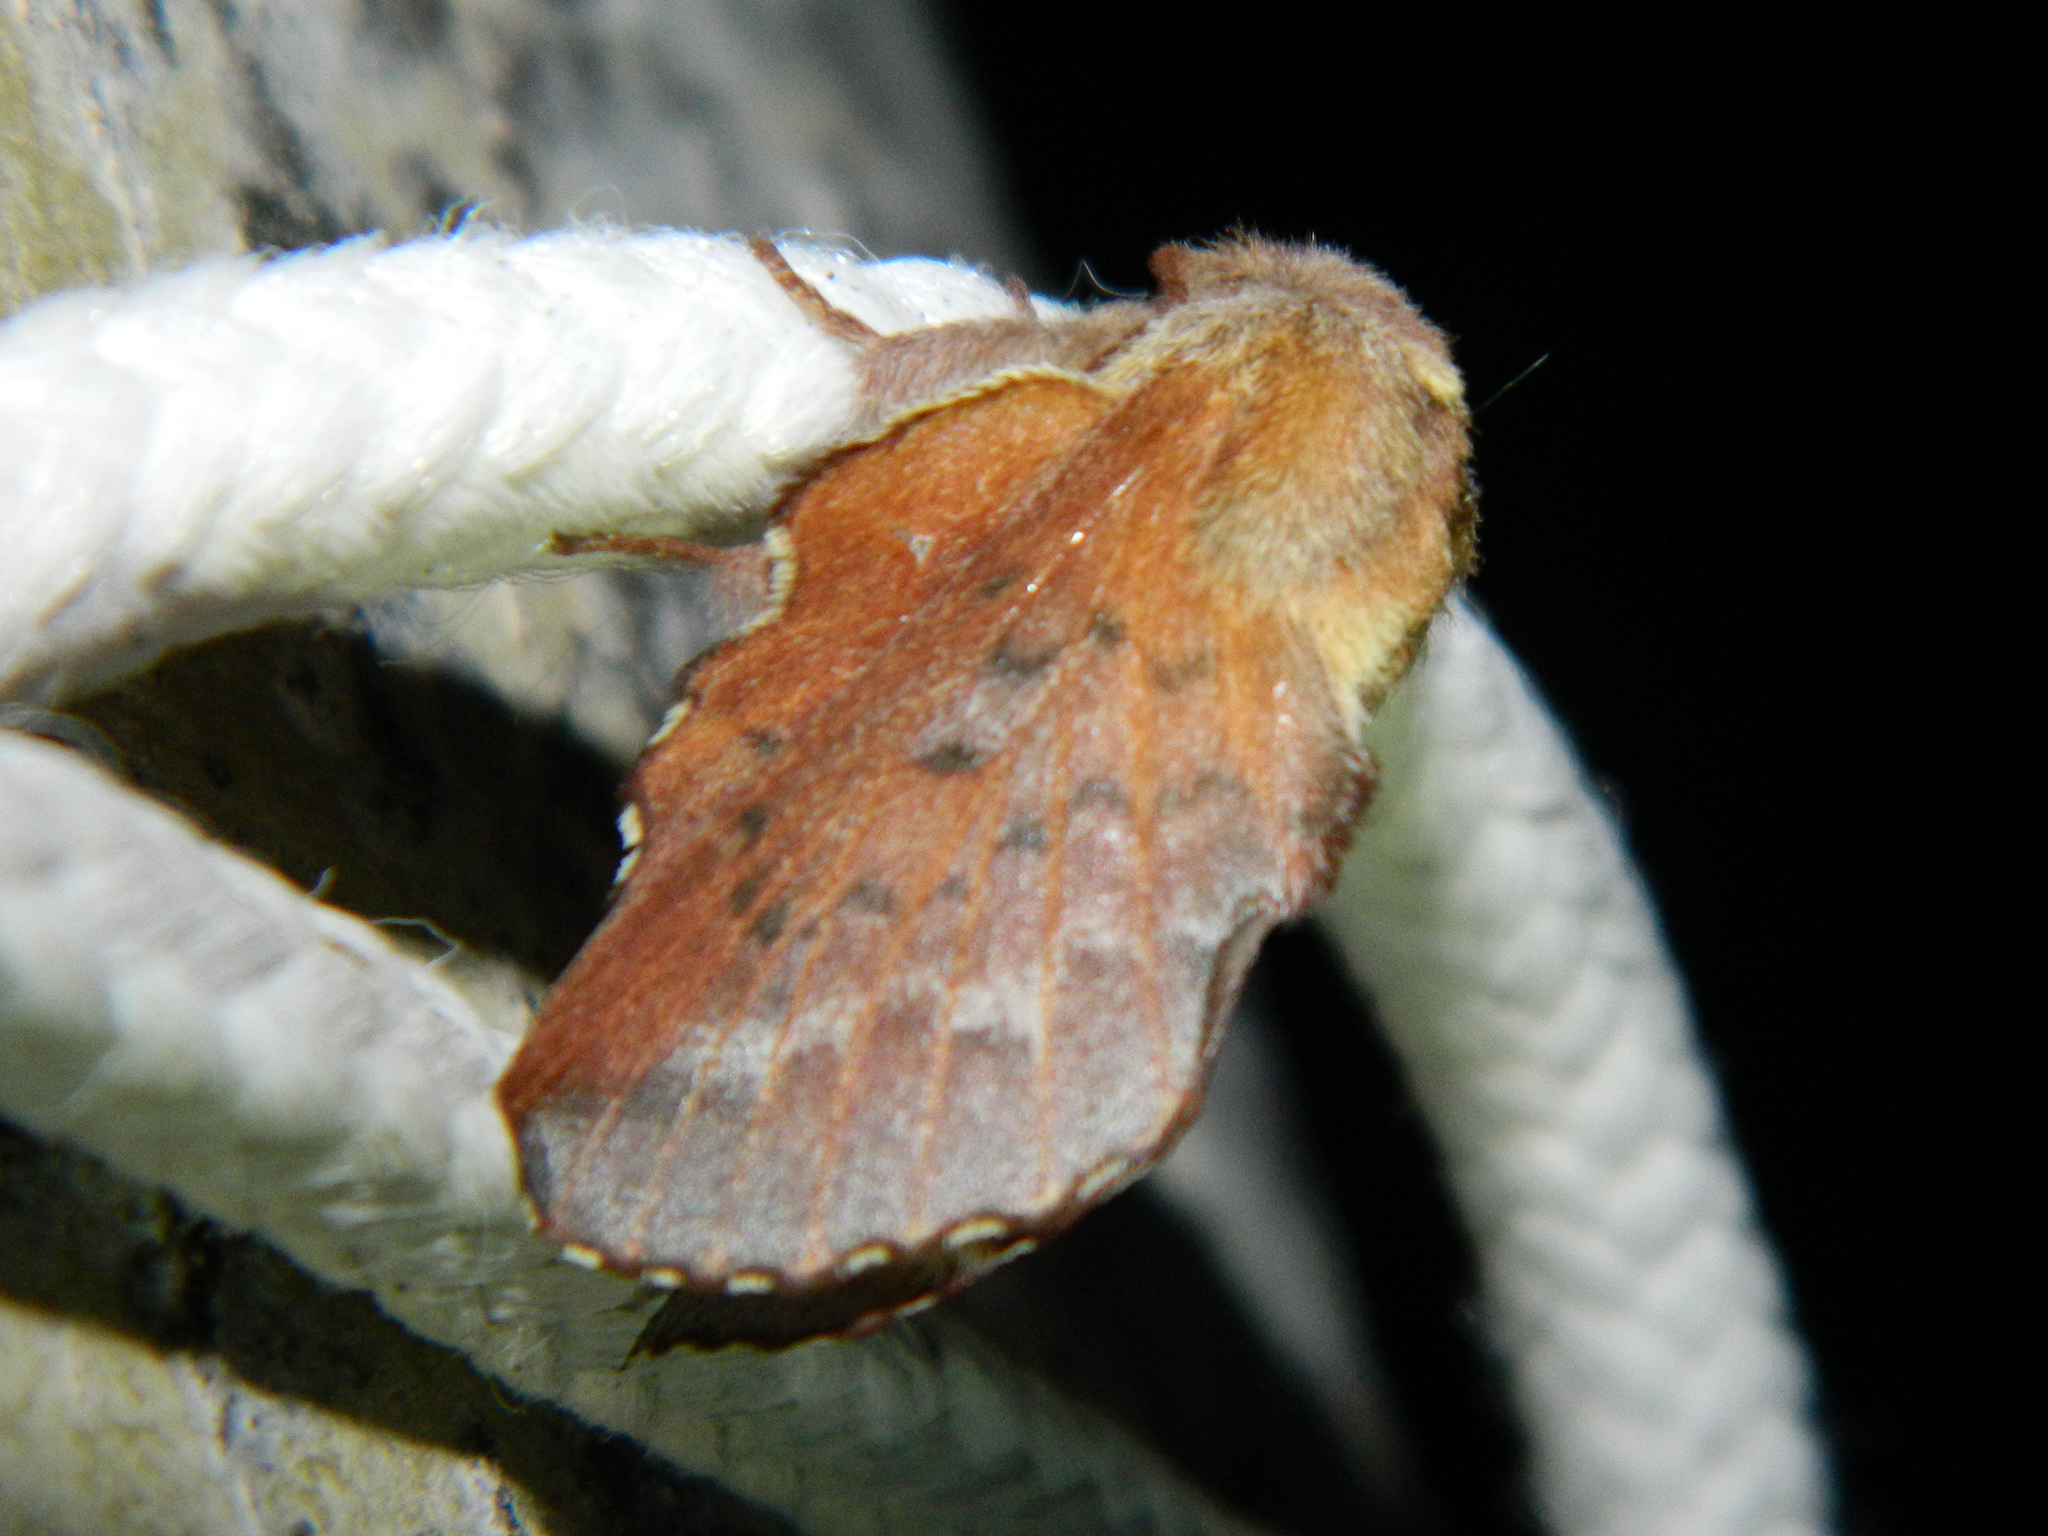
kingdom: Animalia
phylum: Arthropoda
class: Insecta
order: Lepidoptera
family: Lasiocampidae
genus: Phyllodesma
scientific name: Phyllodesma americana
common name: American lappet moth
